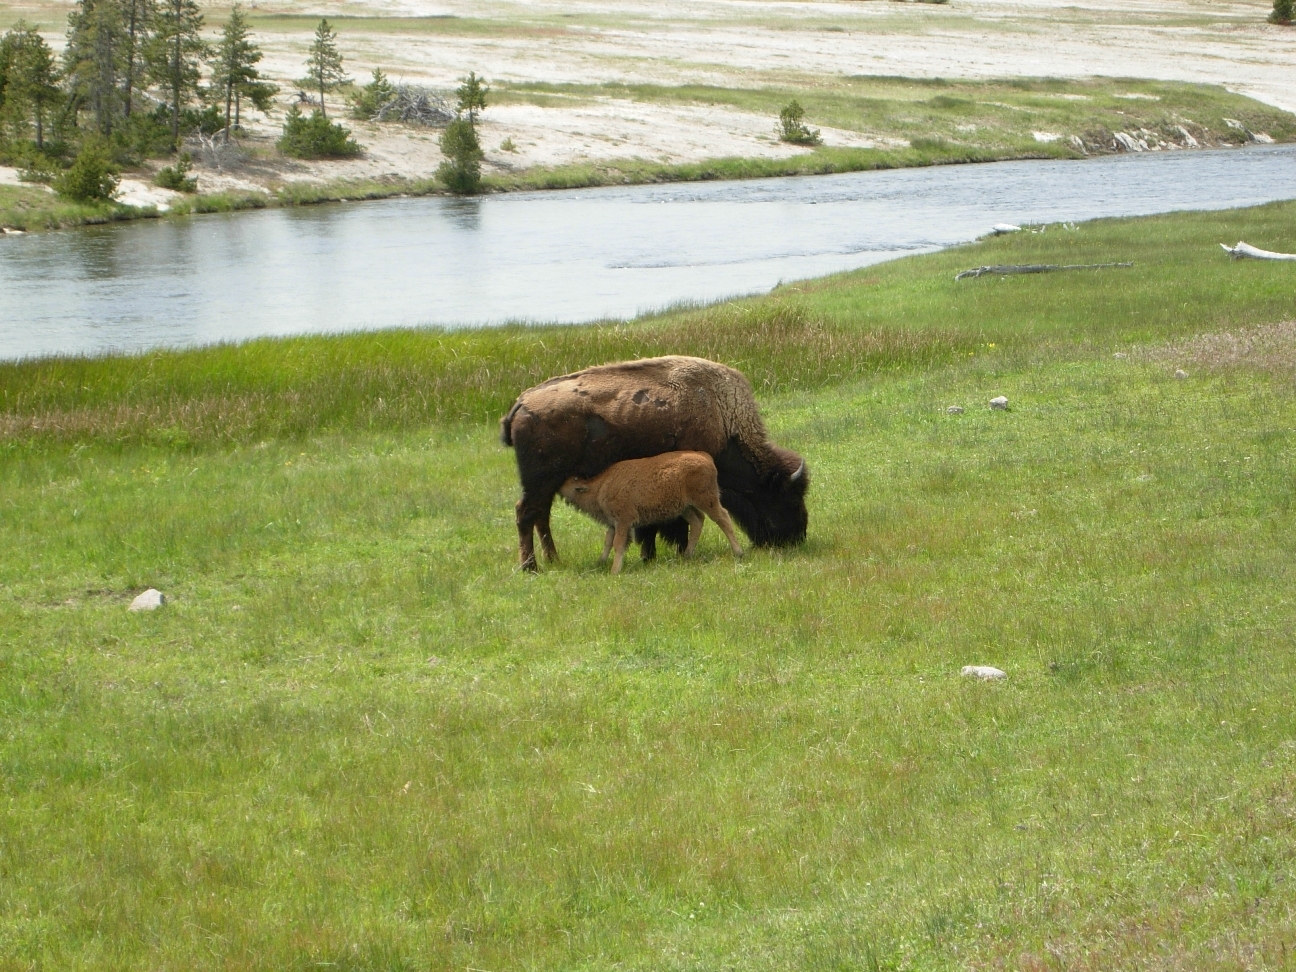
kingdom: Animalia
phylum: Chordata
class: Mammalia
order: Artiodactyla
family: Bovidae
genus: Bison
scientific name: Bison bison
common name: American bison
